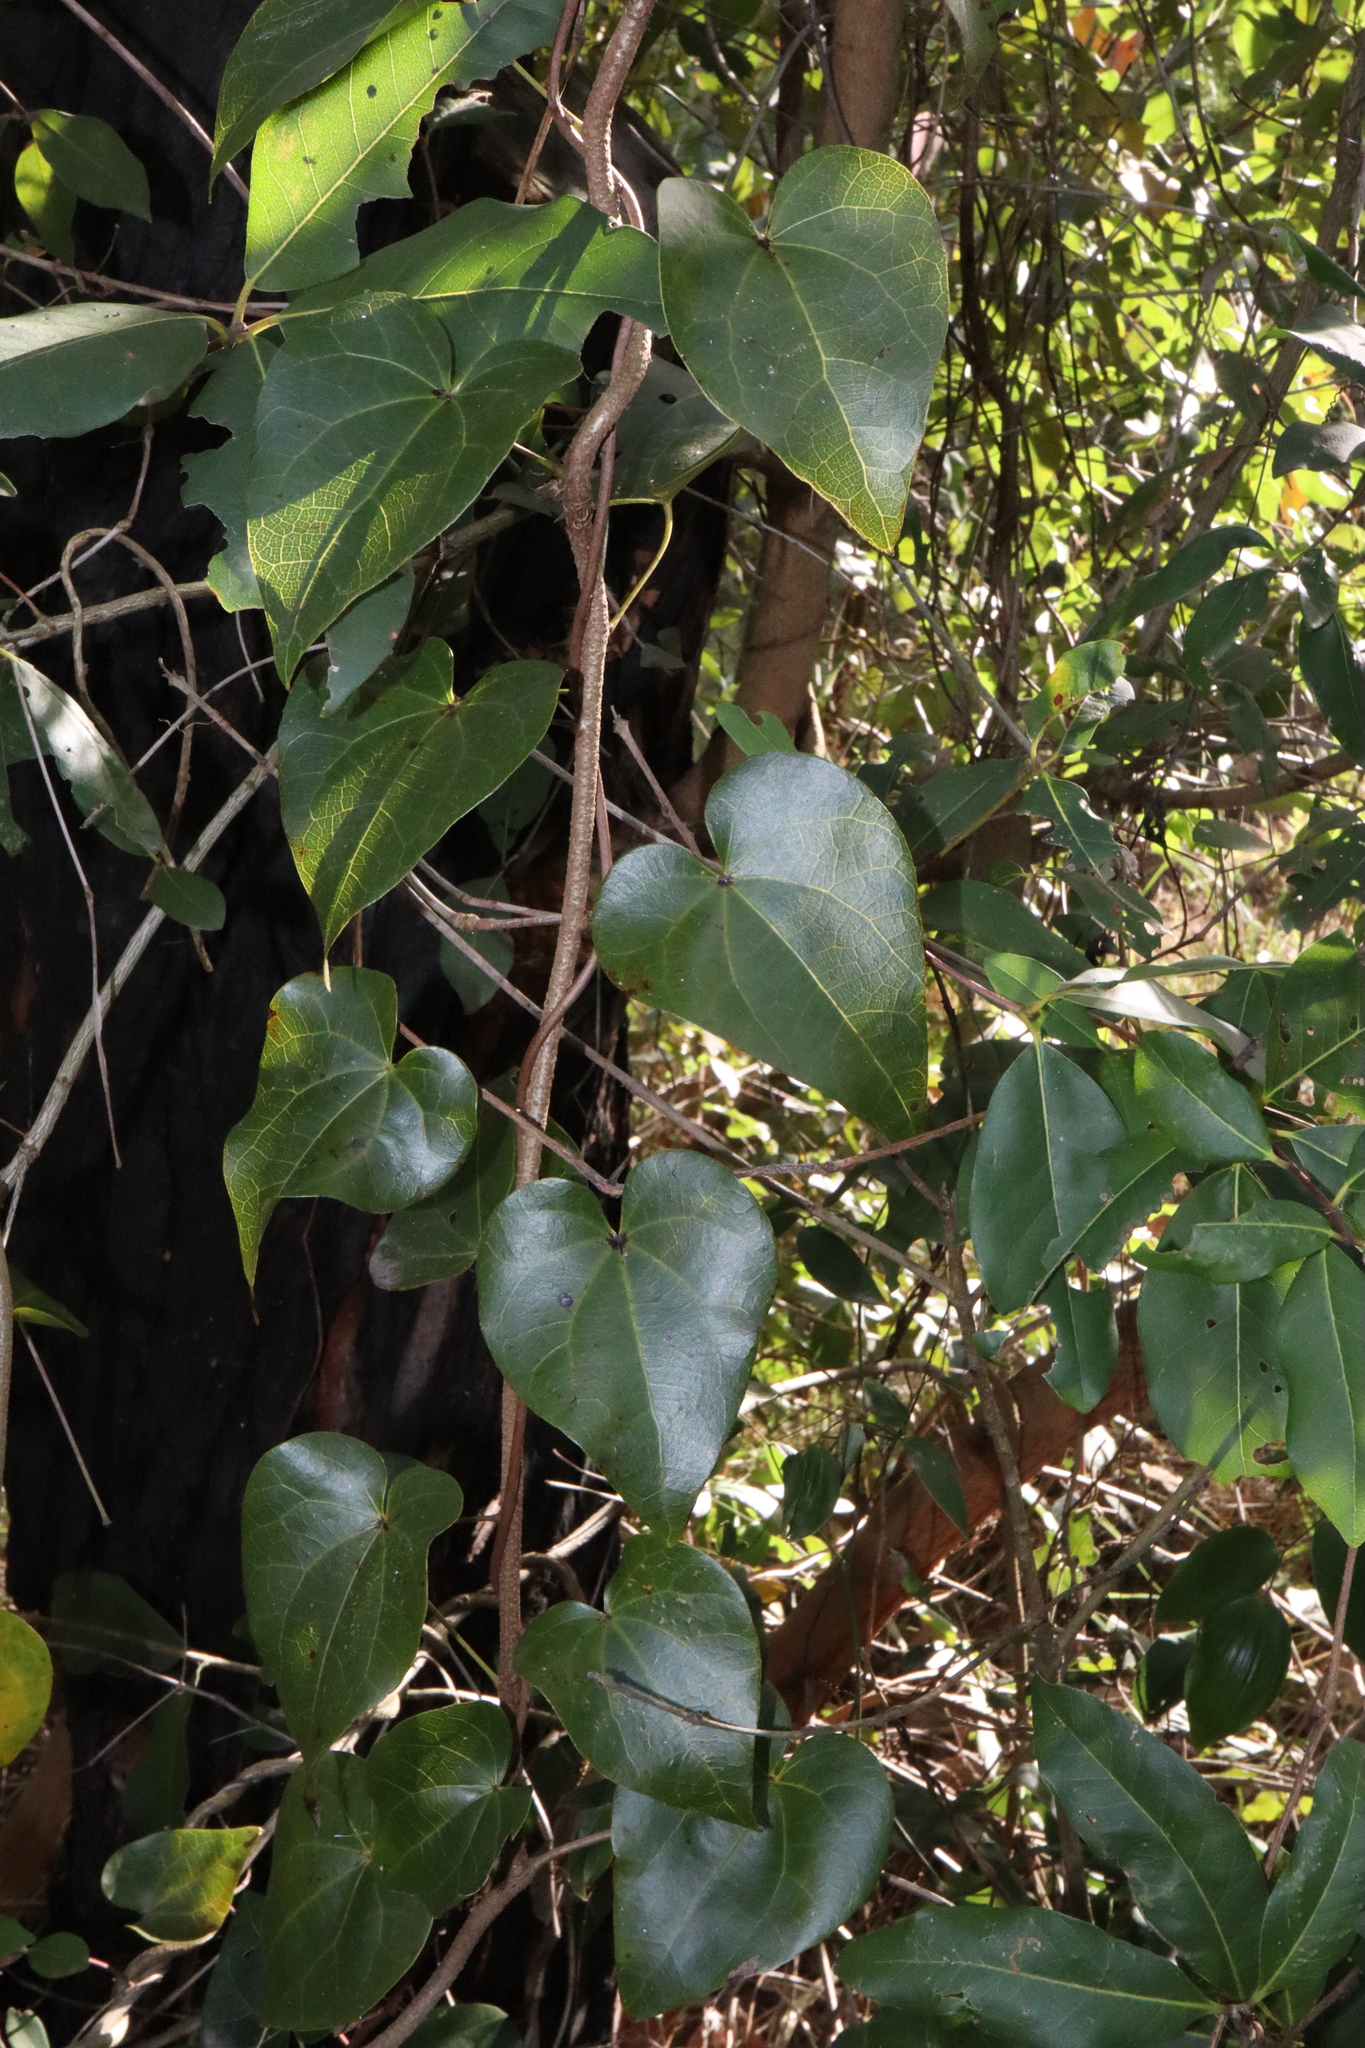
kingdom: Plantae
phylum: Tracheophyta
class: Magnoliopsida
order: Ranunculales
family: Menispermaceae
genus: Sarcopetalum
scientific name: Sarcopetalum harveyanum
